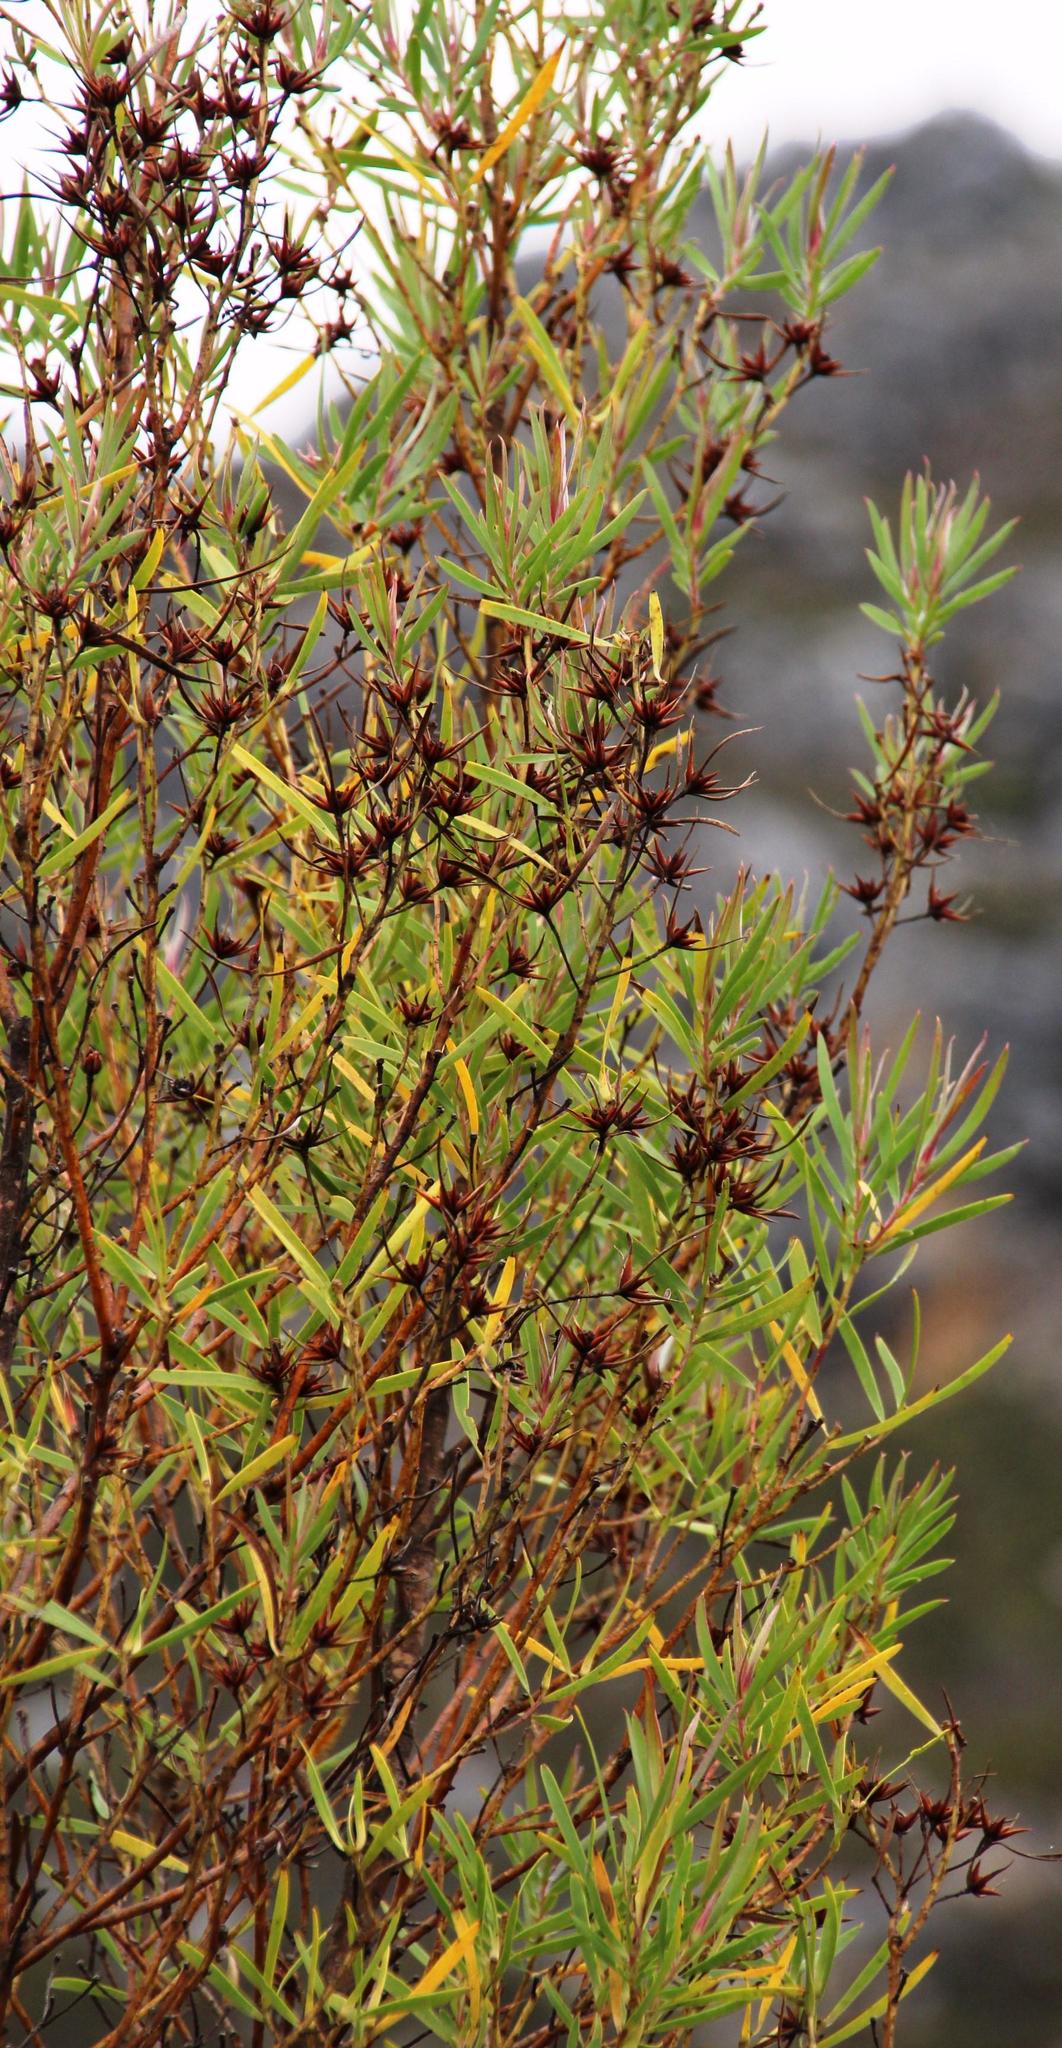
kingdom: Plantae
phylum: Tracheophyta
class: Magnoliopsida
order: Proteales
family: Proteaceae
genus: Leucadendron
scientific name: Leucadendron salicifolium
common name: Common stream conebush
